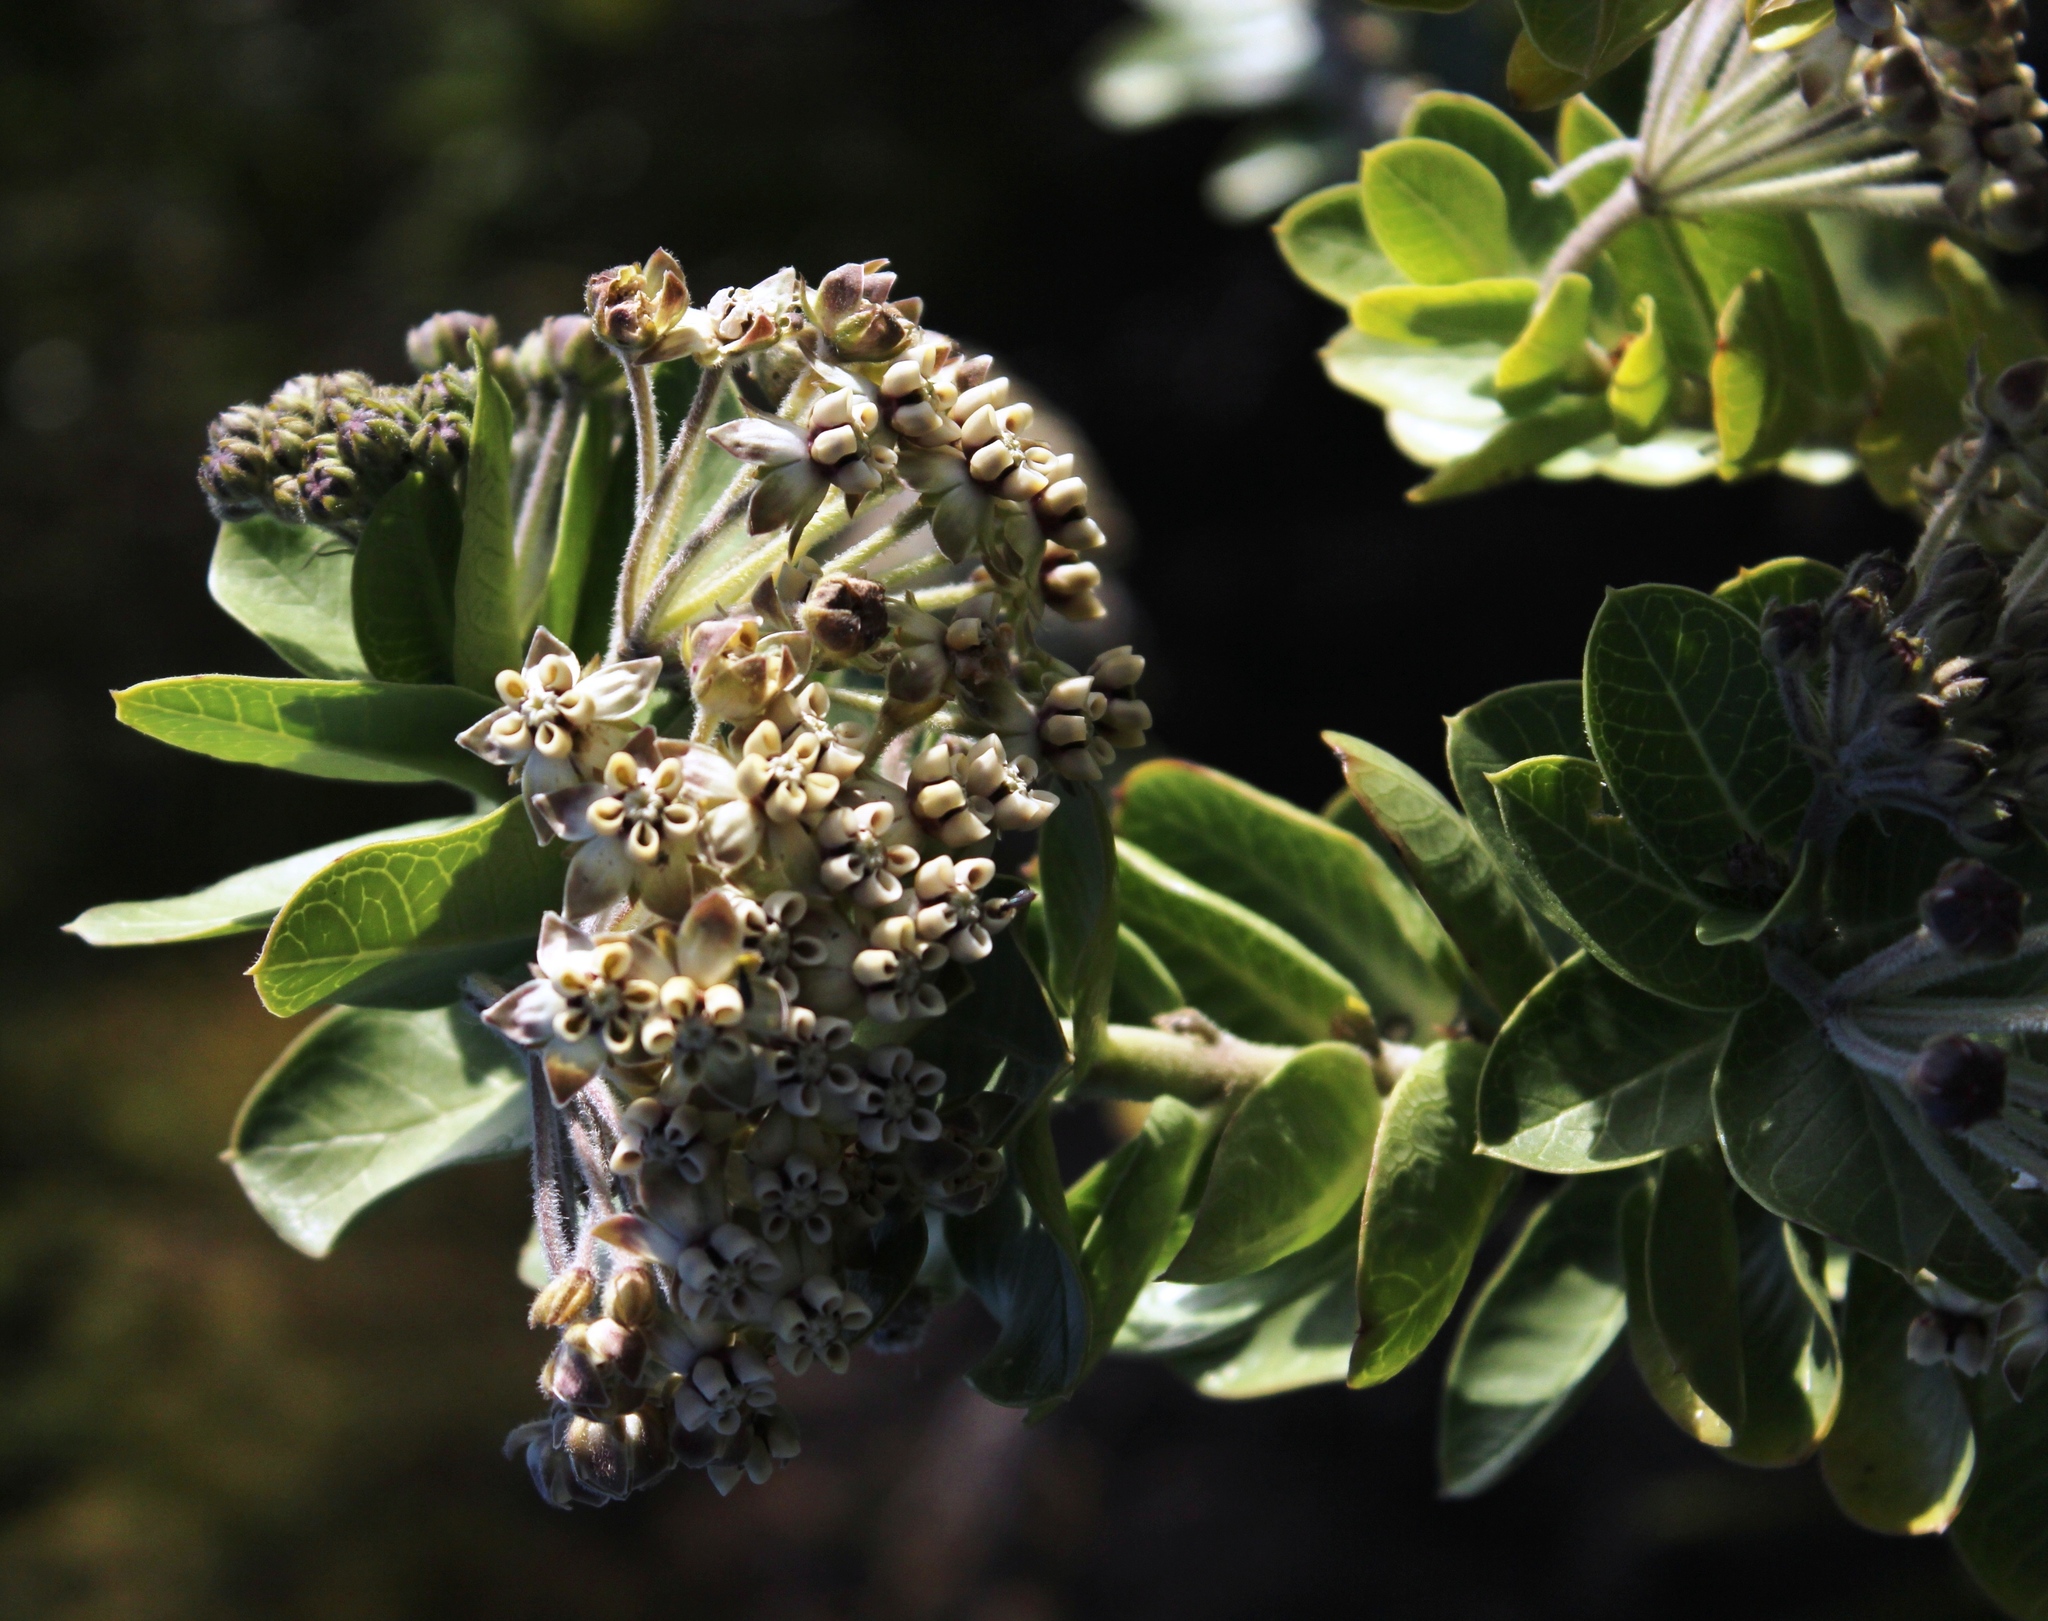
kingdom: Plantae
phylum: Tracheophyta
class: Magnoliopsida
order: Gentianales
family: Apocynaceae
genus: Gomphocarpus
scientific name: Gomphocarpus cancellatus
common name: Wild cotton
